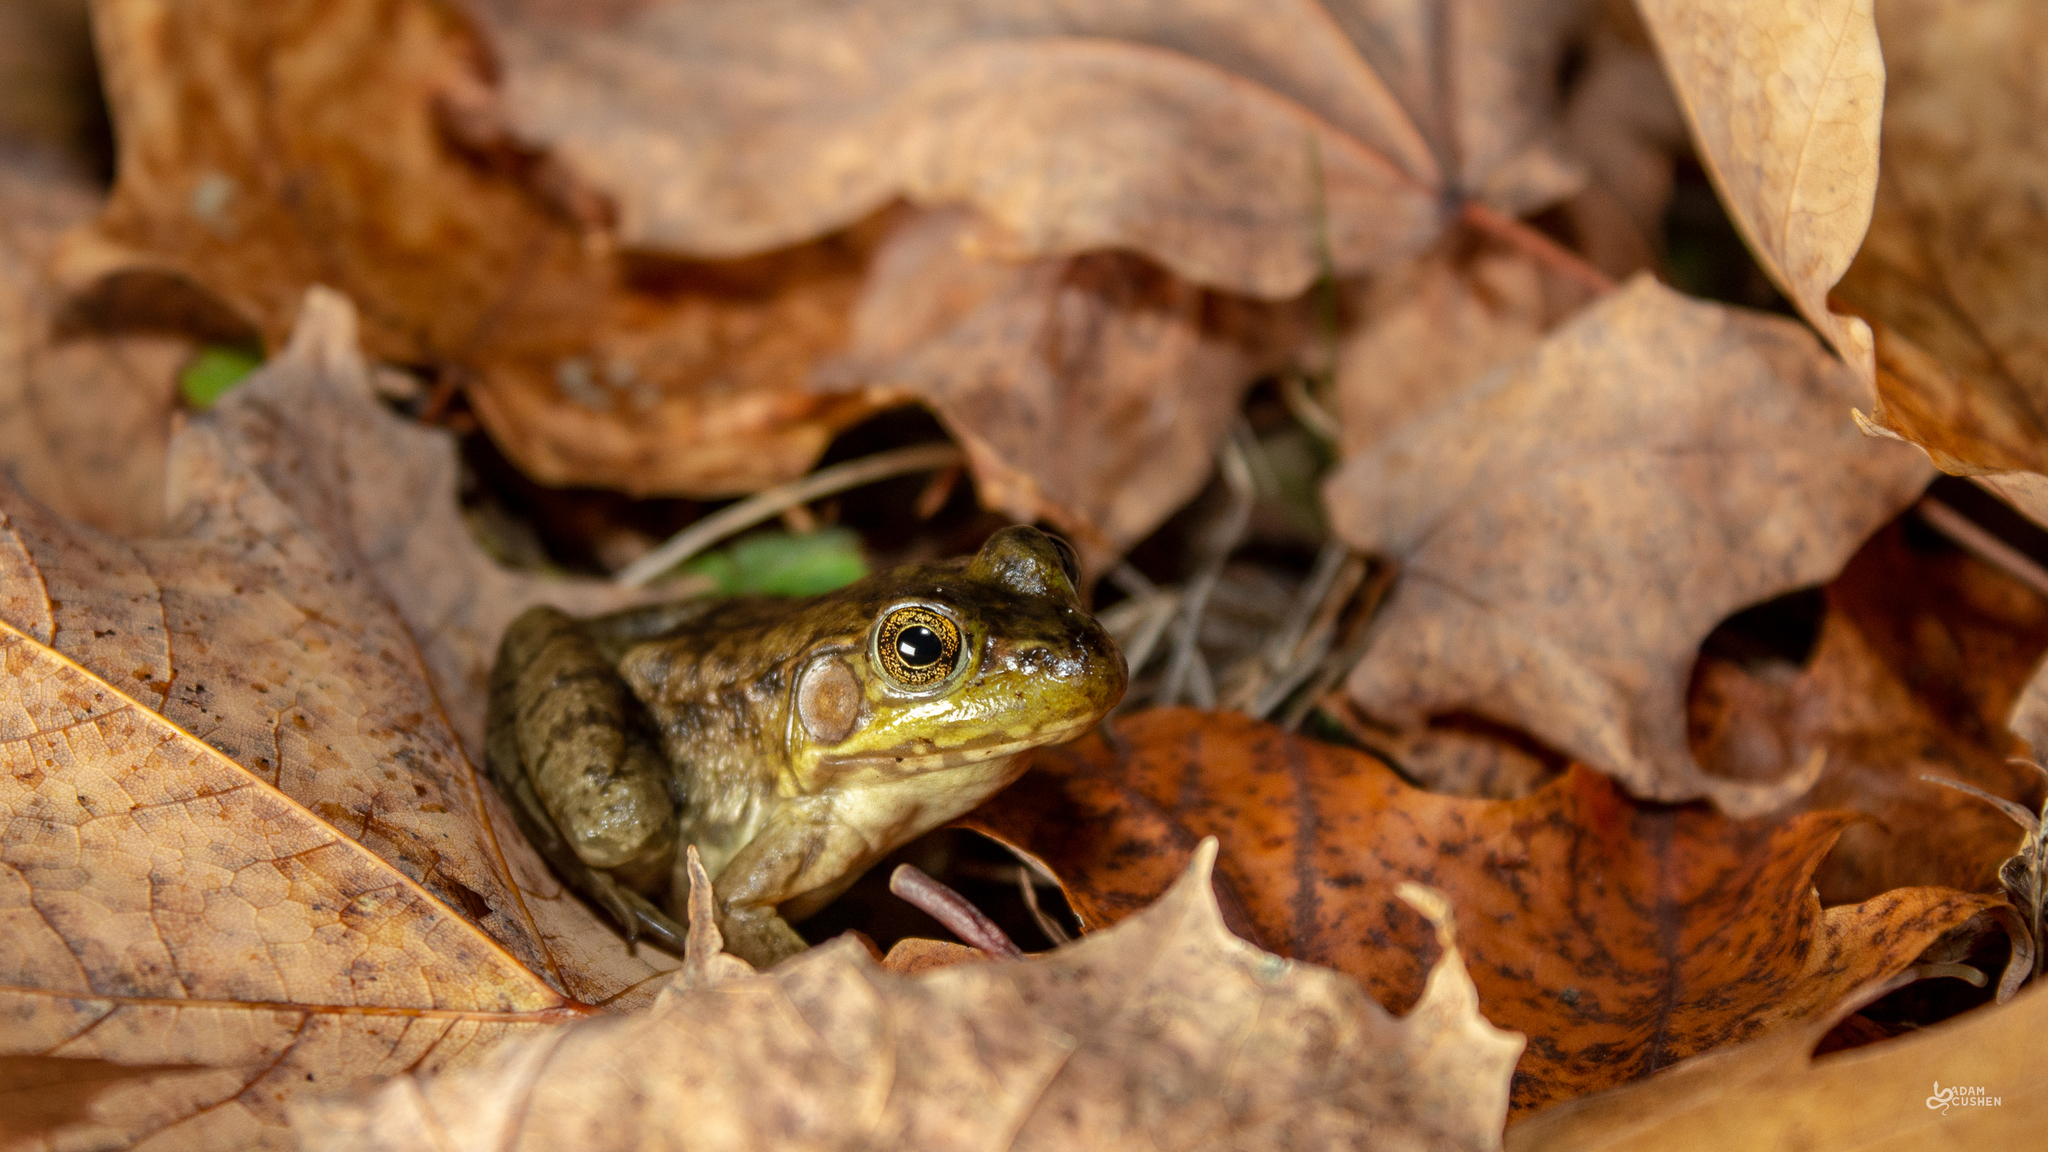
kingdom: Animalia
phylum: Chordata
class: Amphibia
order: Anura
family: Ranidae
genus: Lithobates
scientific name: Lithobates clamitans
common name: Green frog
